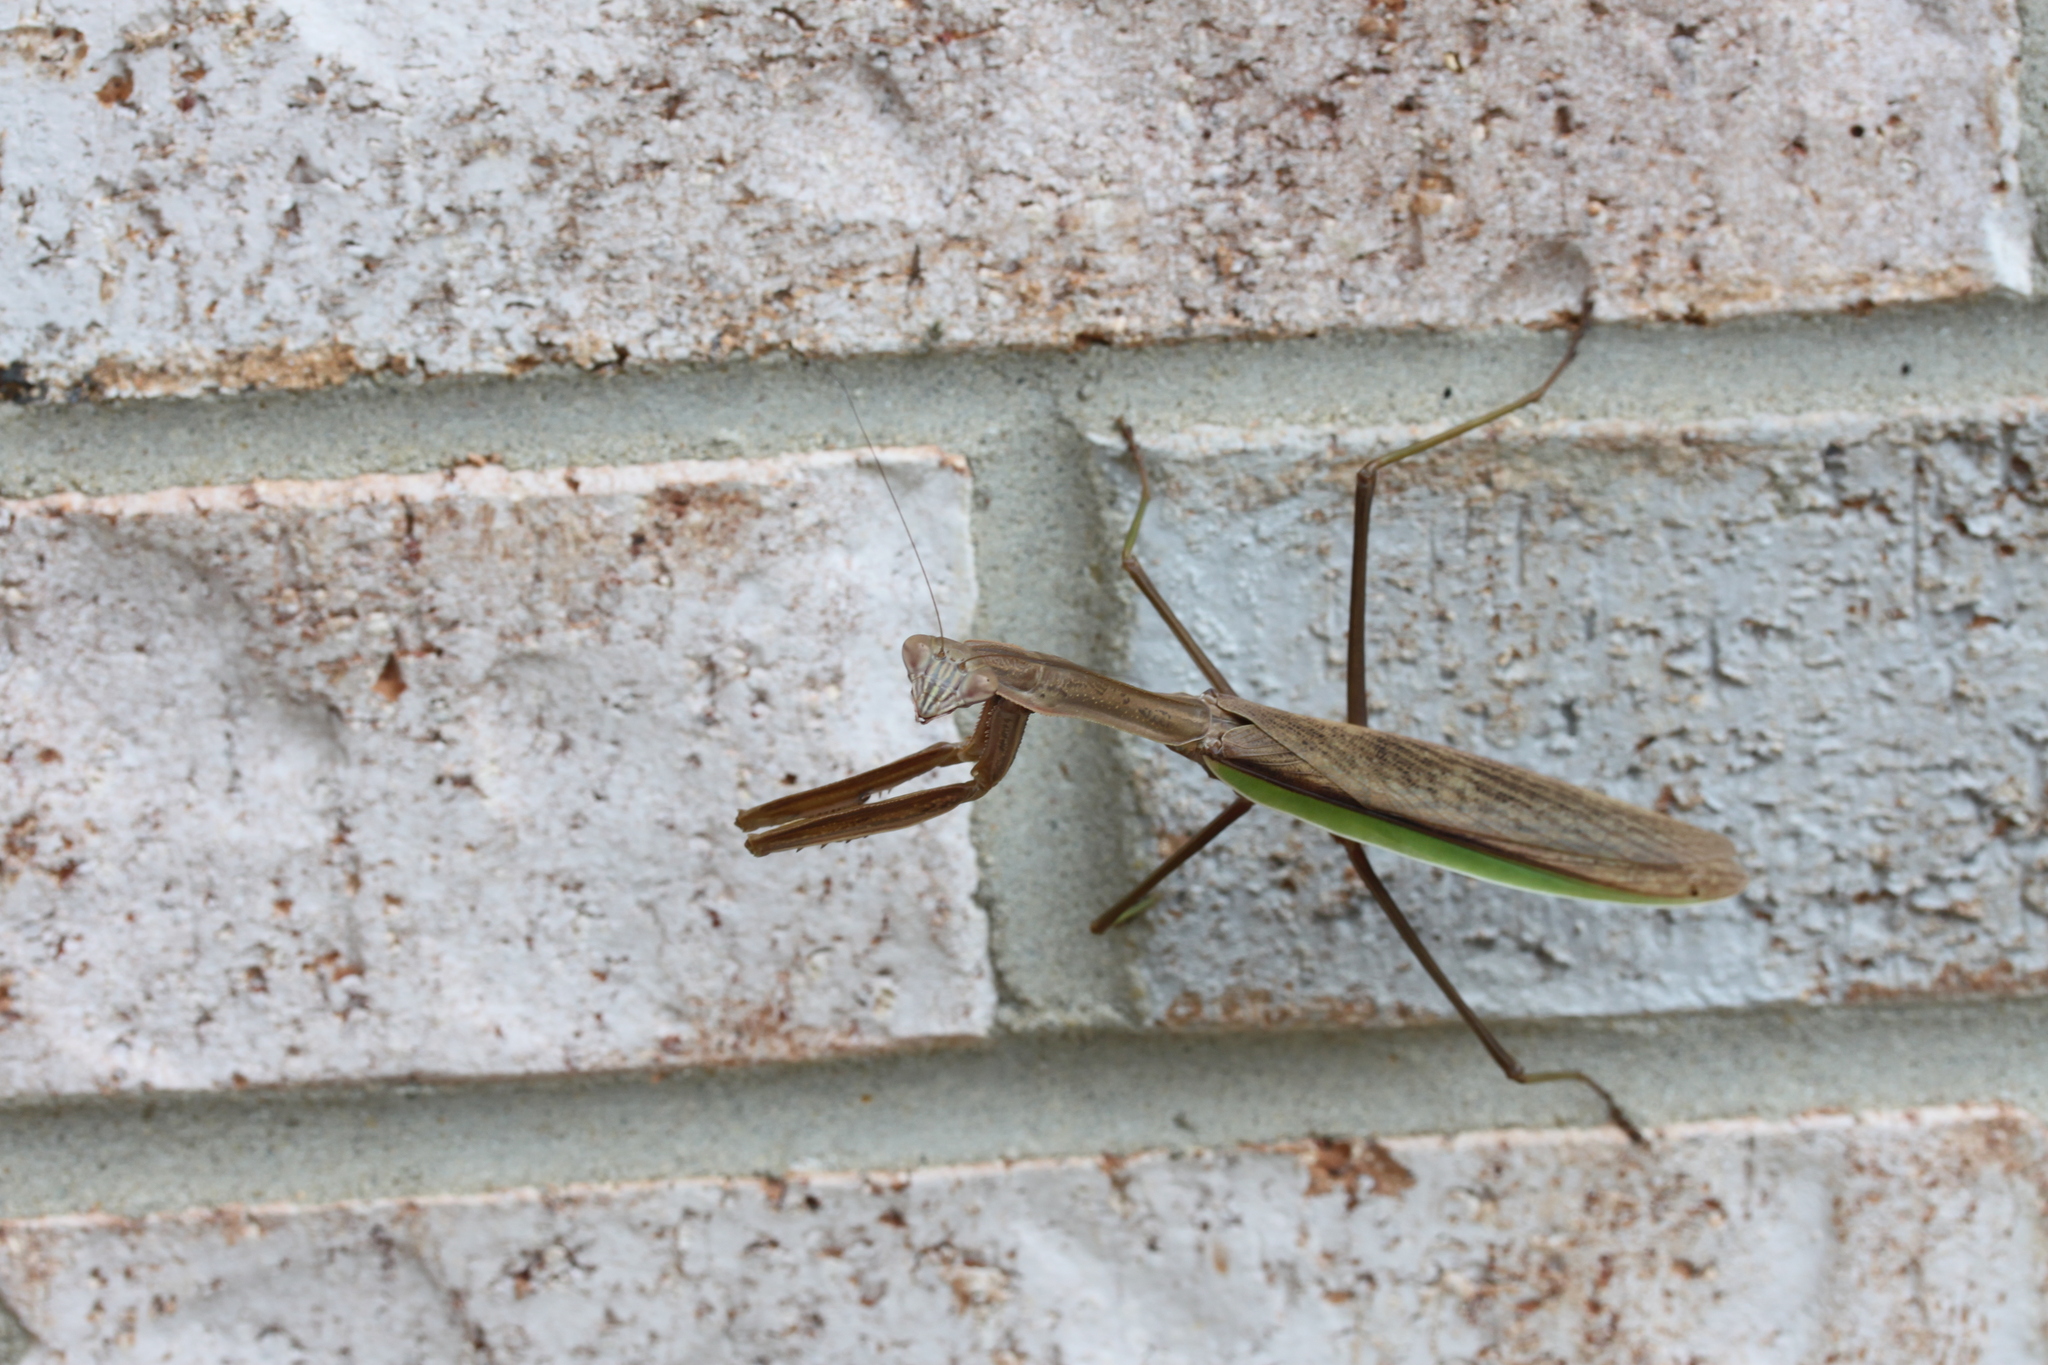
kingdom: Animalia
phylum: Arthropoda
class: Insecta
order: Mantodea
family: Mantidae
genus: Tenodera
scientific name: Tenodera sinensis
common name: Chinese mantis
